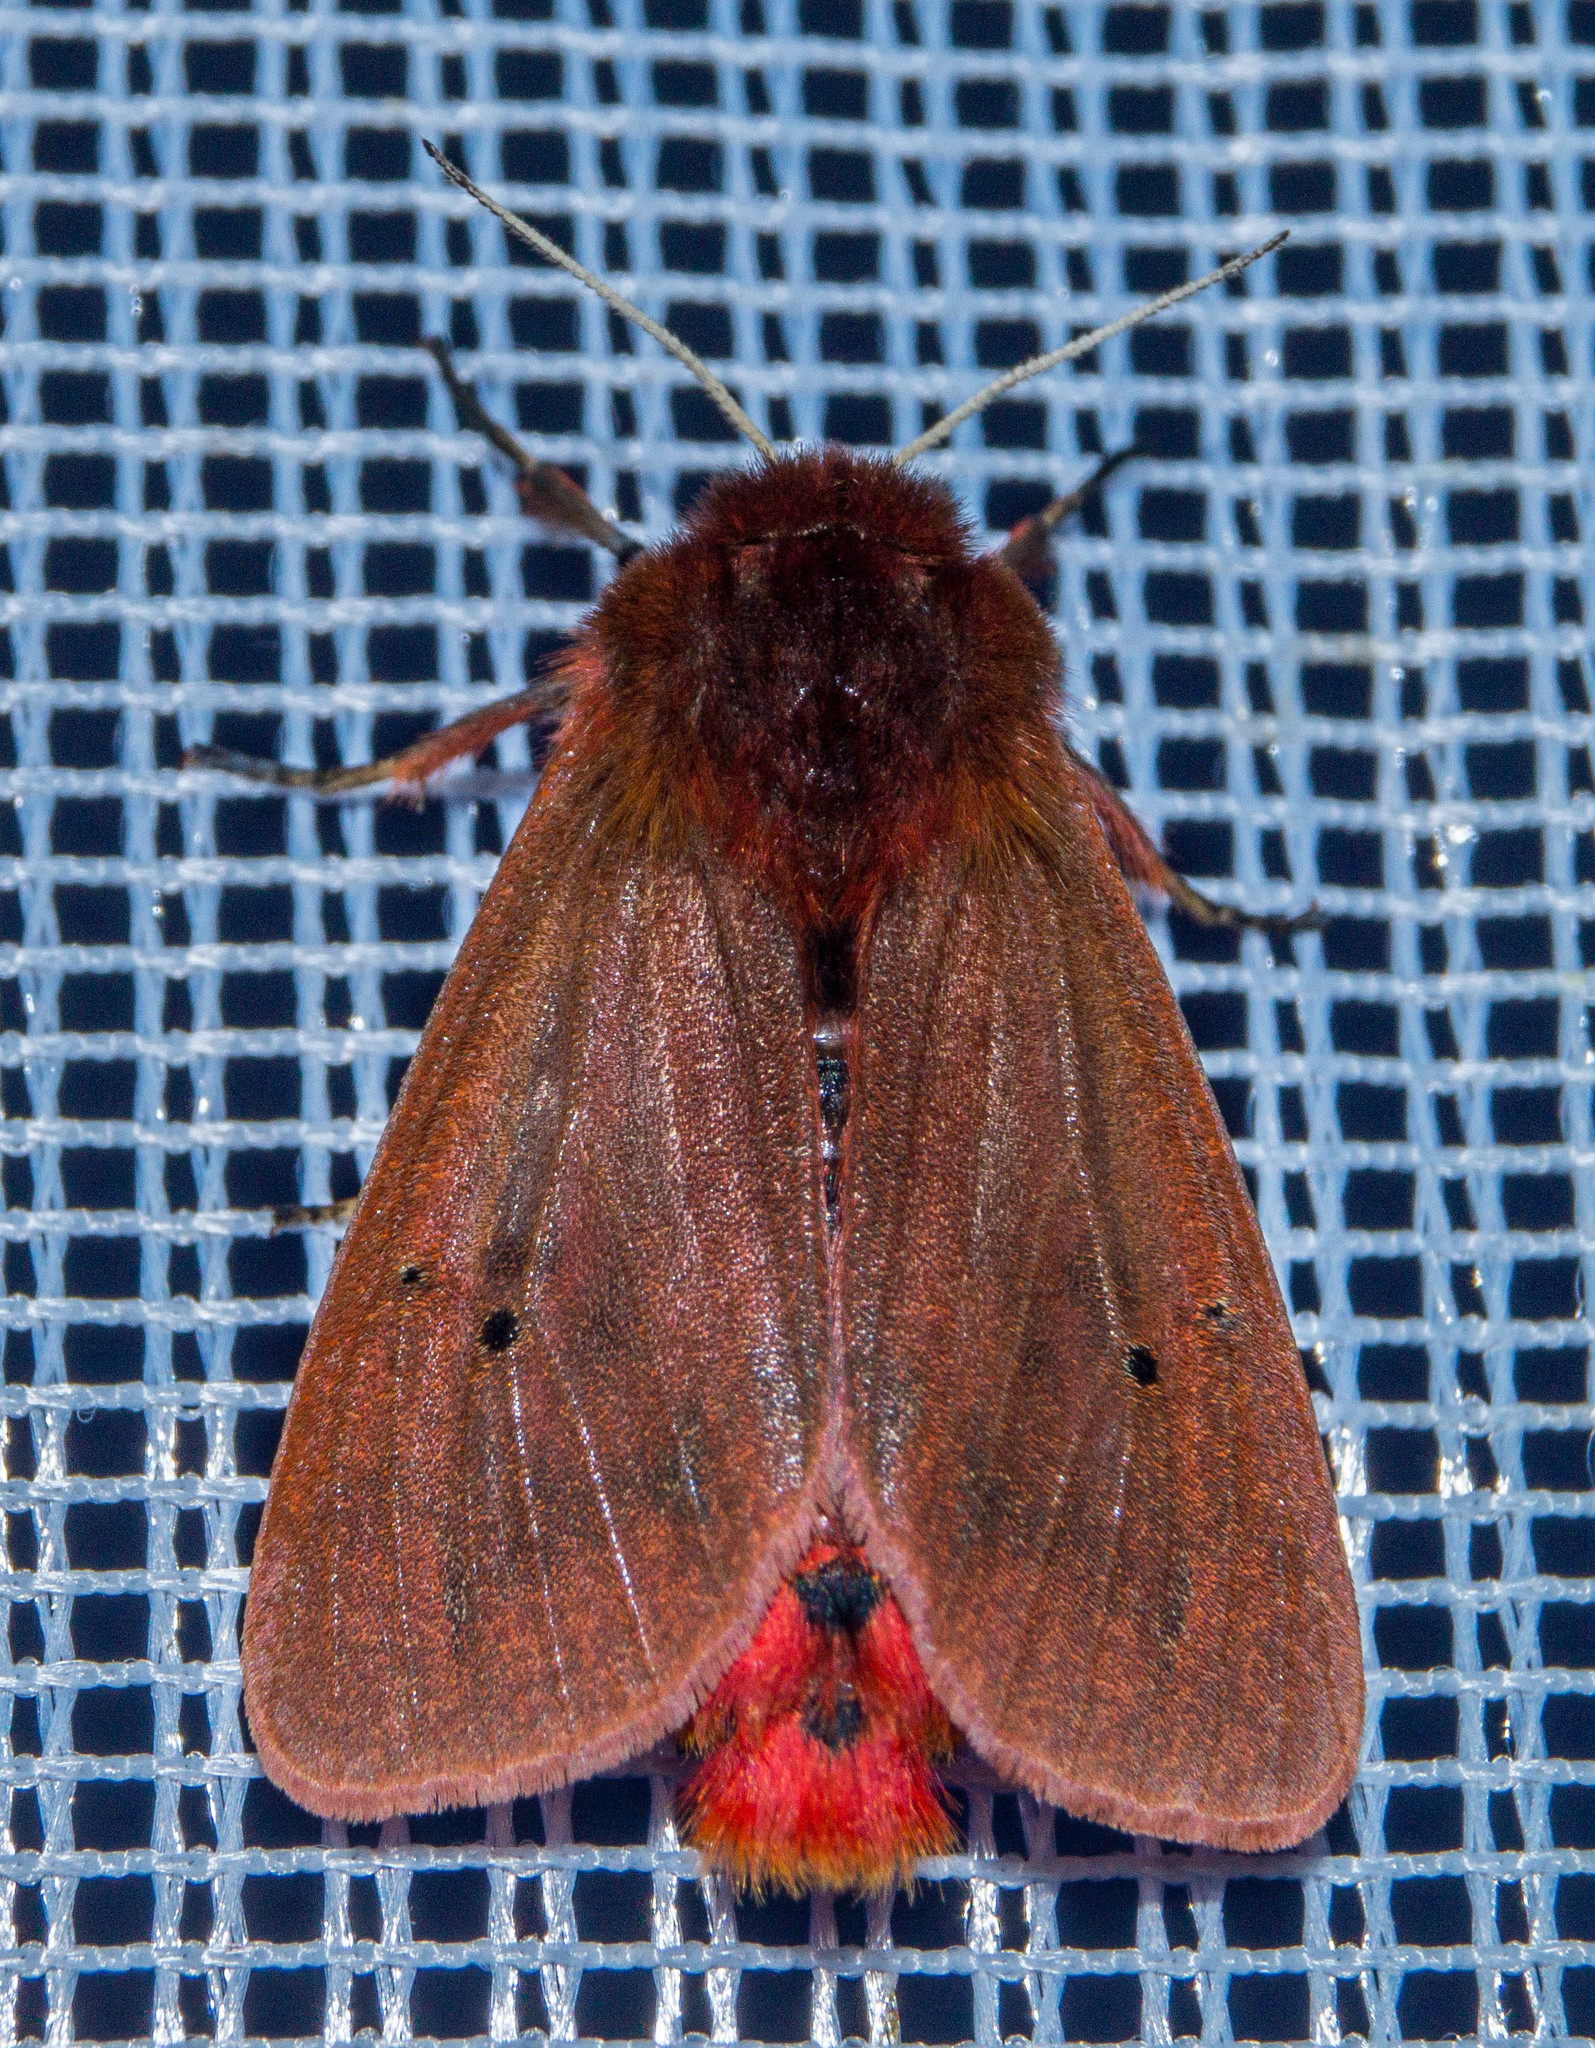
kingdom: Animalia
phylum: Arthropoda
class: Insecta
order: Lepidoptera
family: Erebidae
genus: Phragmatobia
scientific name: Phragmatobia fuliginosa
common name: Ruby tiger
